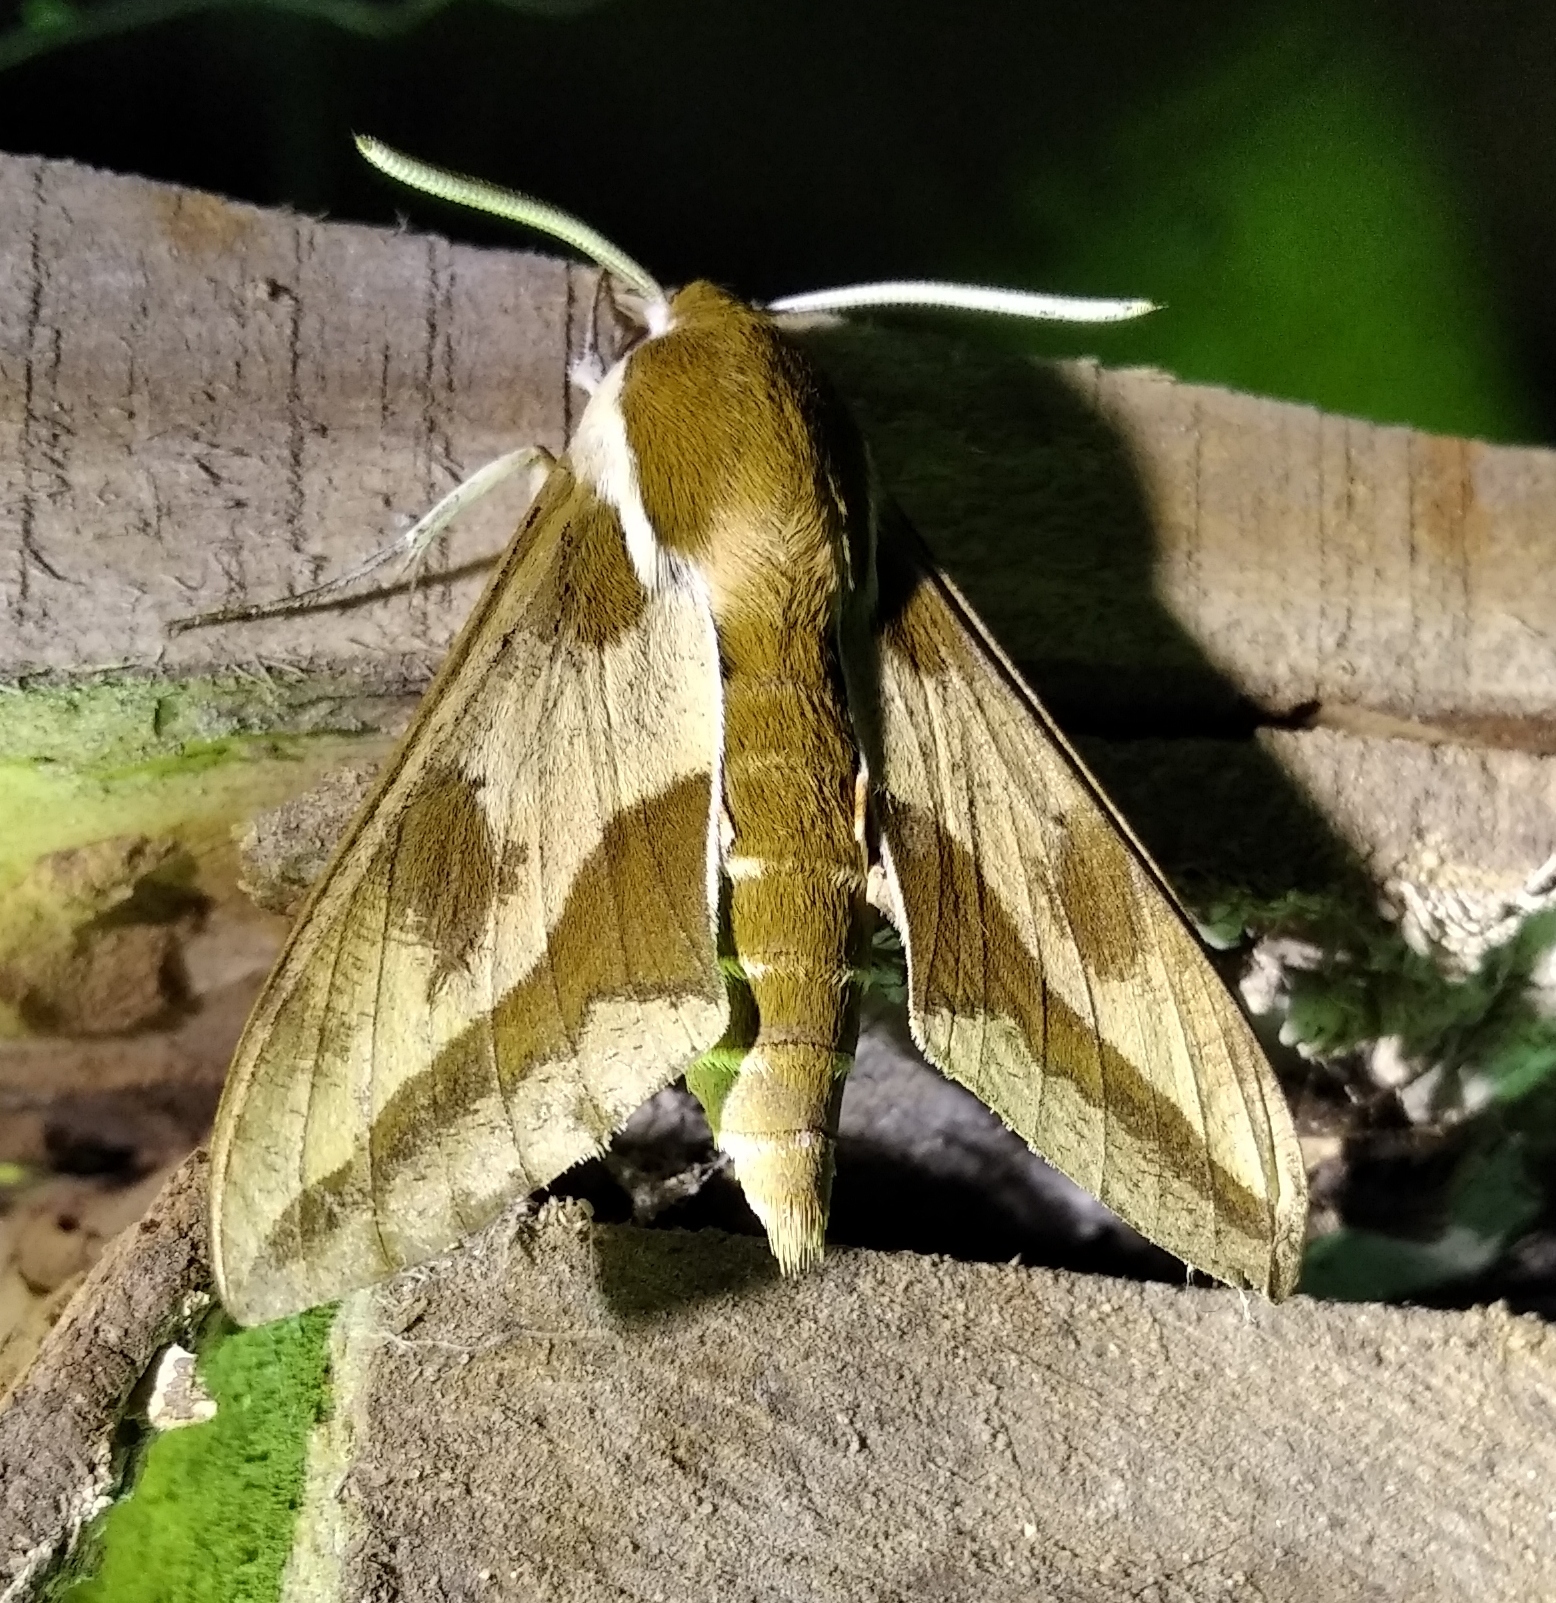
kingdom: Animalia
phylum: Arthropoda
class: Insecta
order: Lepidoptera
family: Sphingidae
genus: Hyles
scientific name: Hyles euphorbiae
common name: Spurge hawk-moth
